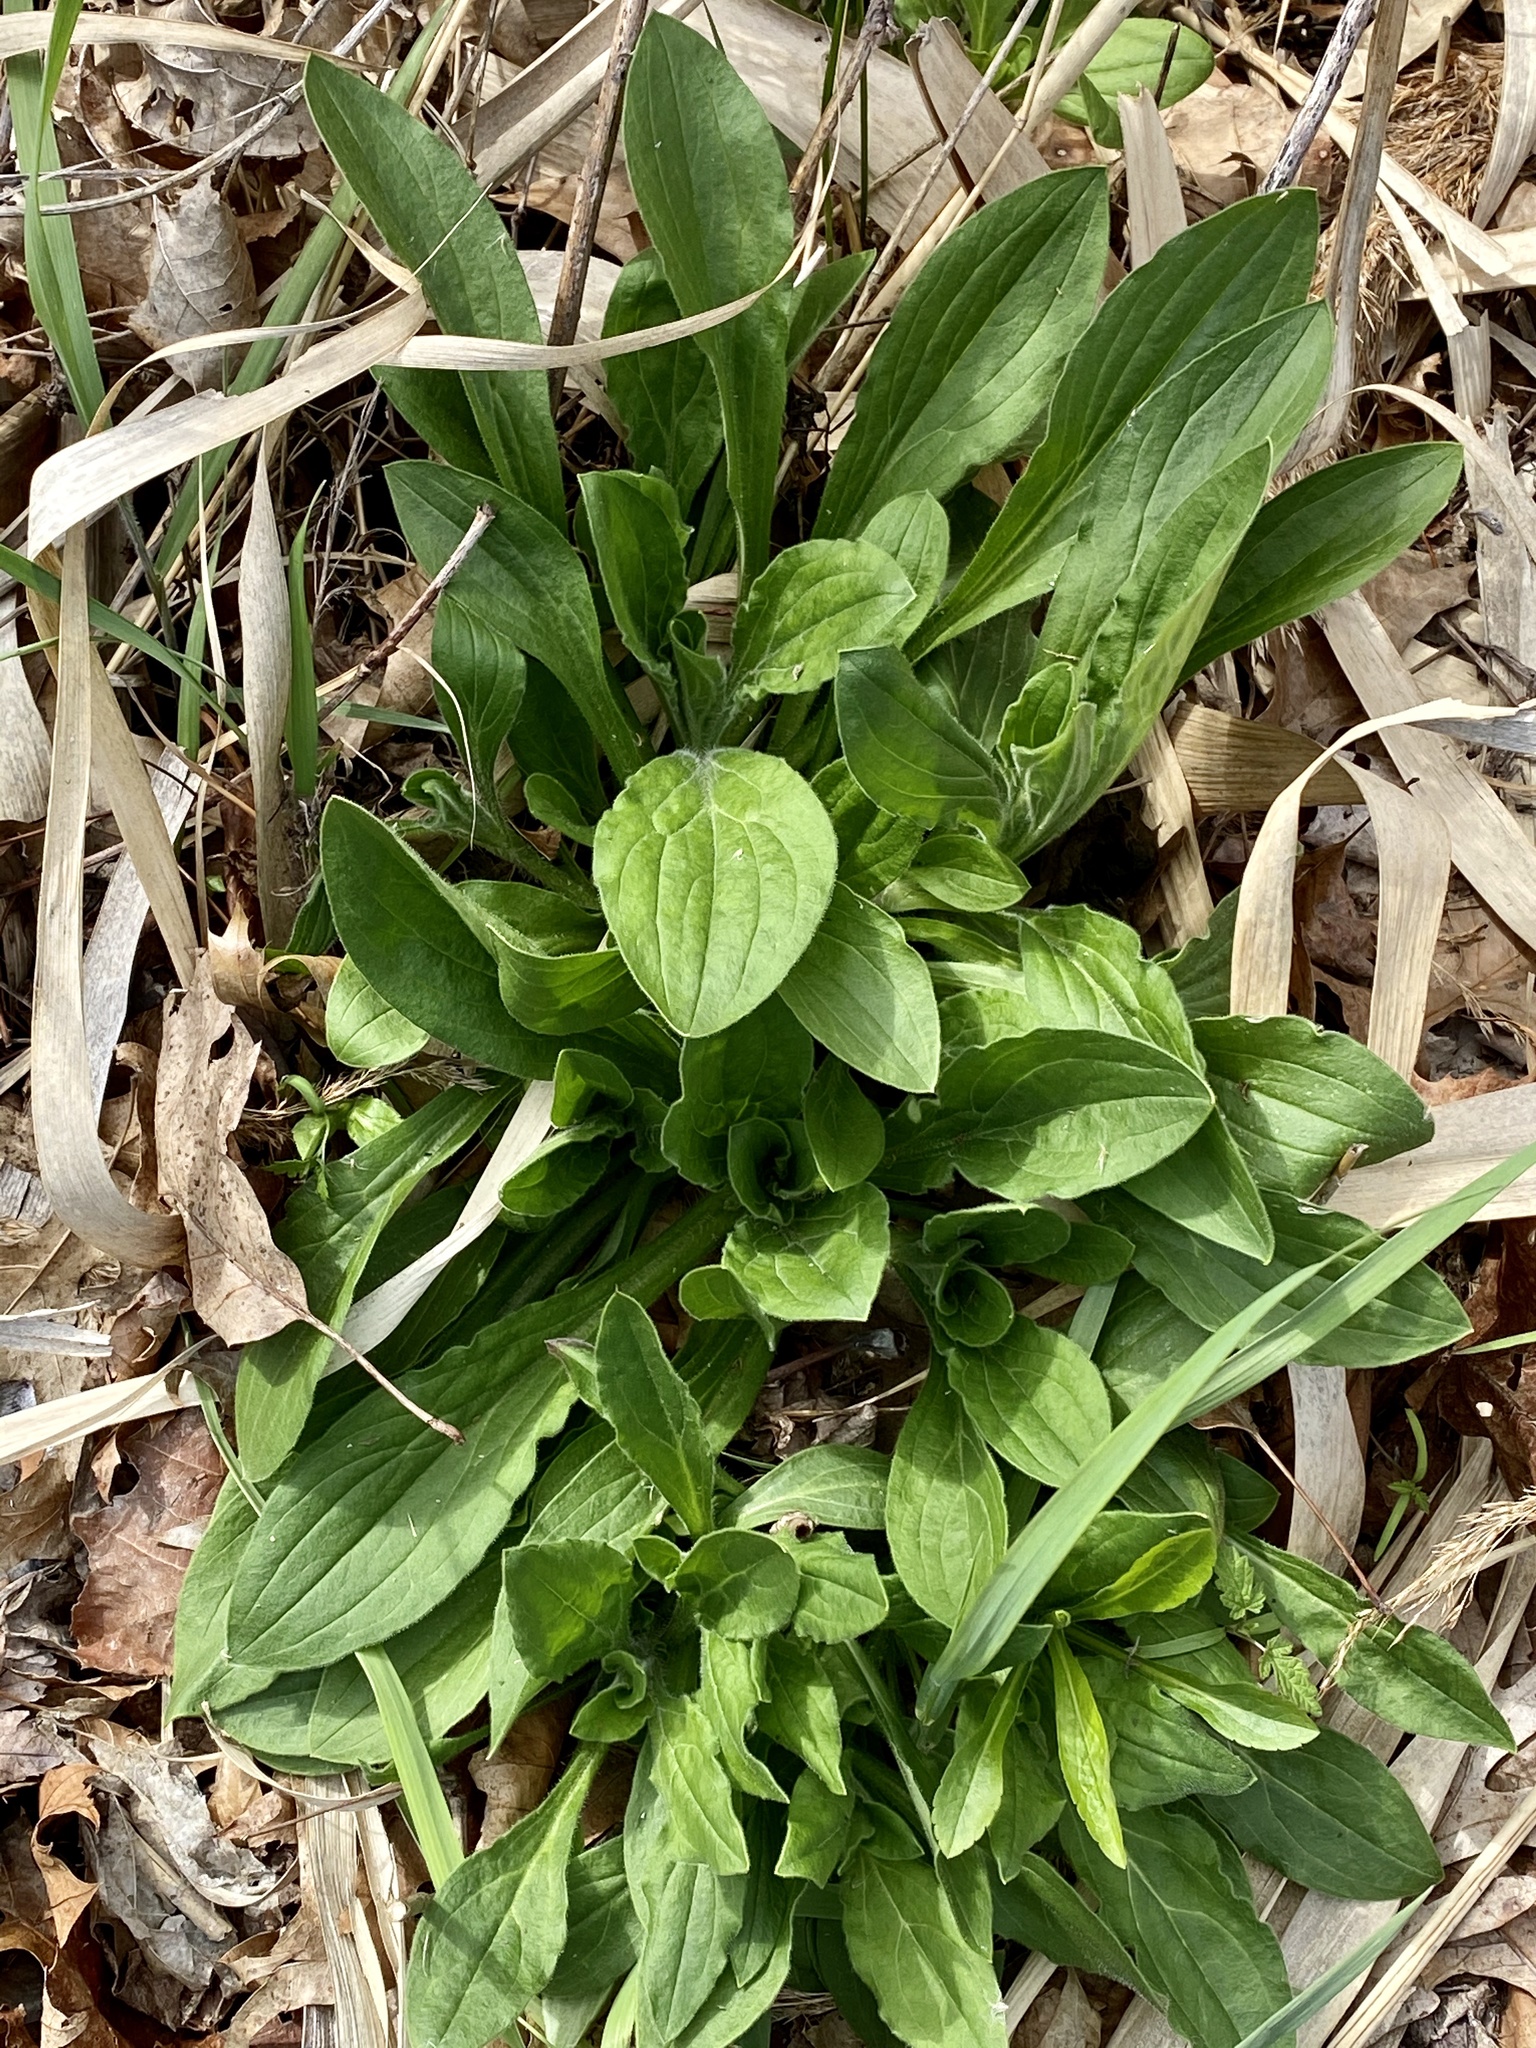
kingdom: Plantae
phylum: Tracheophyta
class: Magnoliopsida
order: Caryophyllales
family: Caryophyllaceae
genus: Silene
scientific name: Silene latifolia
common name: White campion
